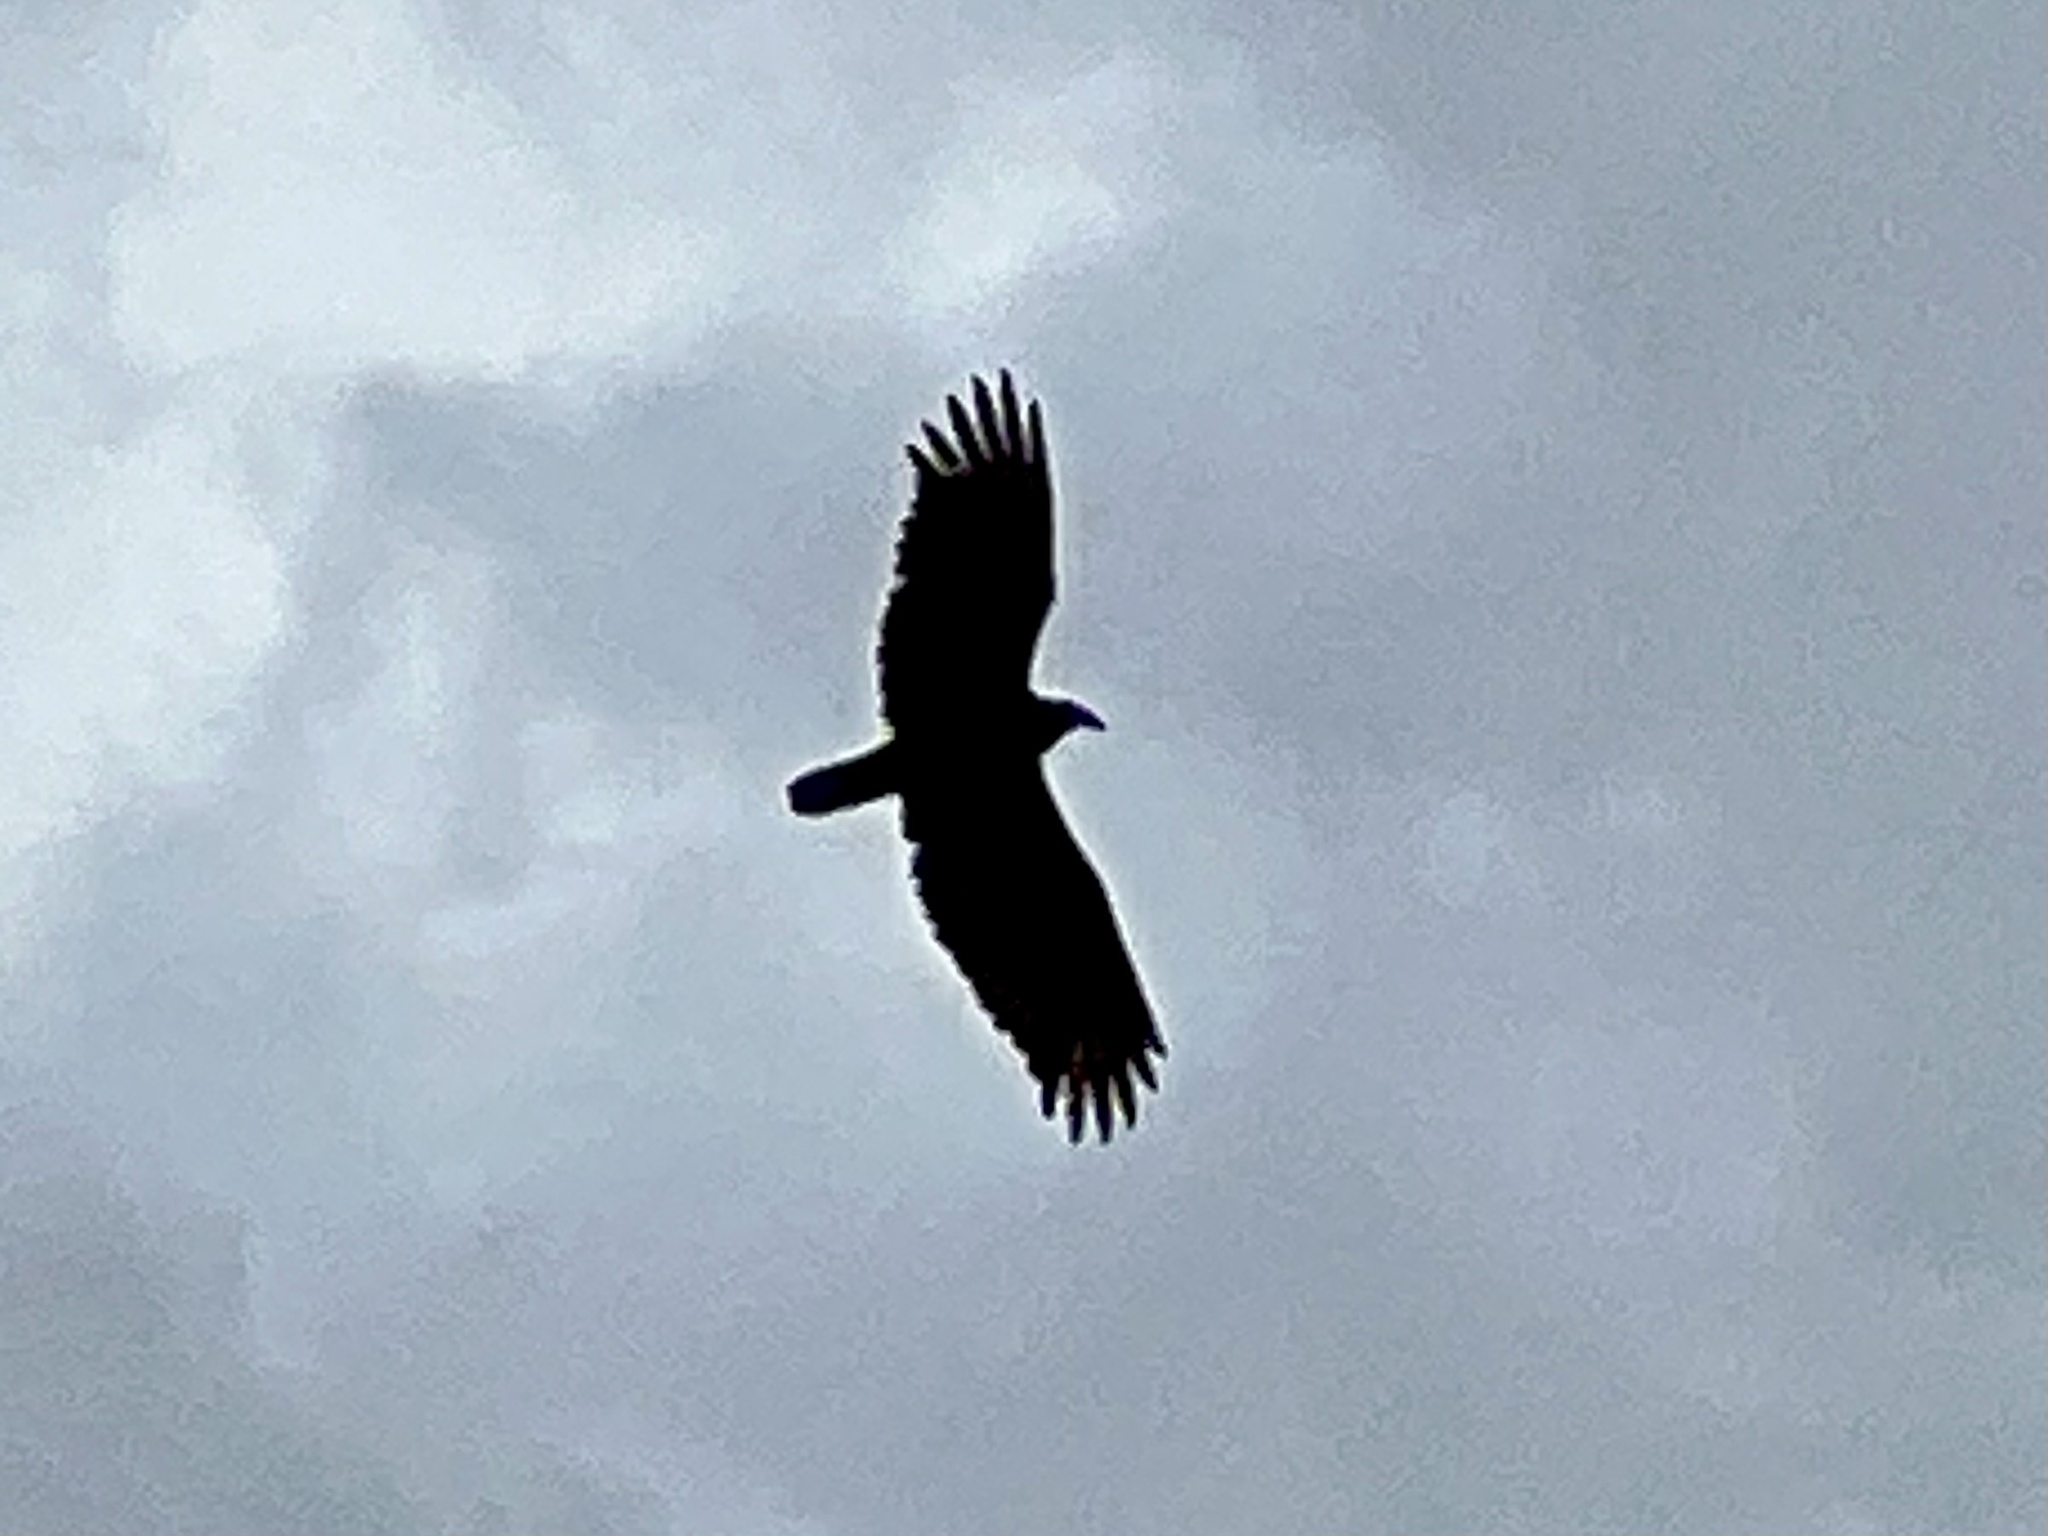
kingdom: Animalia
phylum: Chordata
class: Aves
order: Accipitriformes
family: Cathartidae
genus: Cathartes
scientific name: Cathartes aura
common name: Turkey vulture
